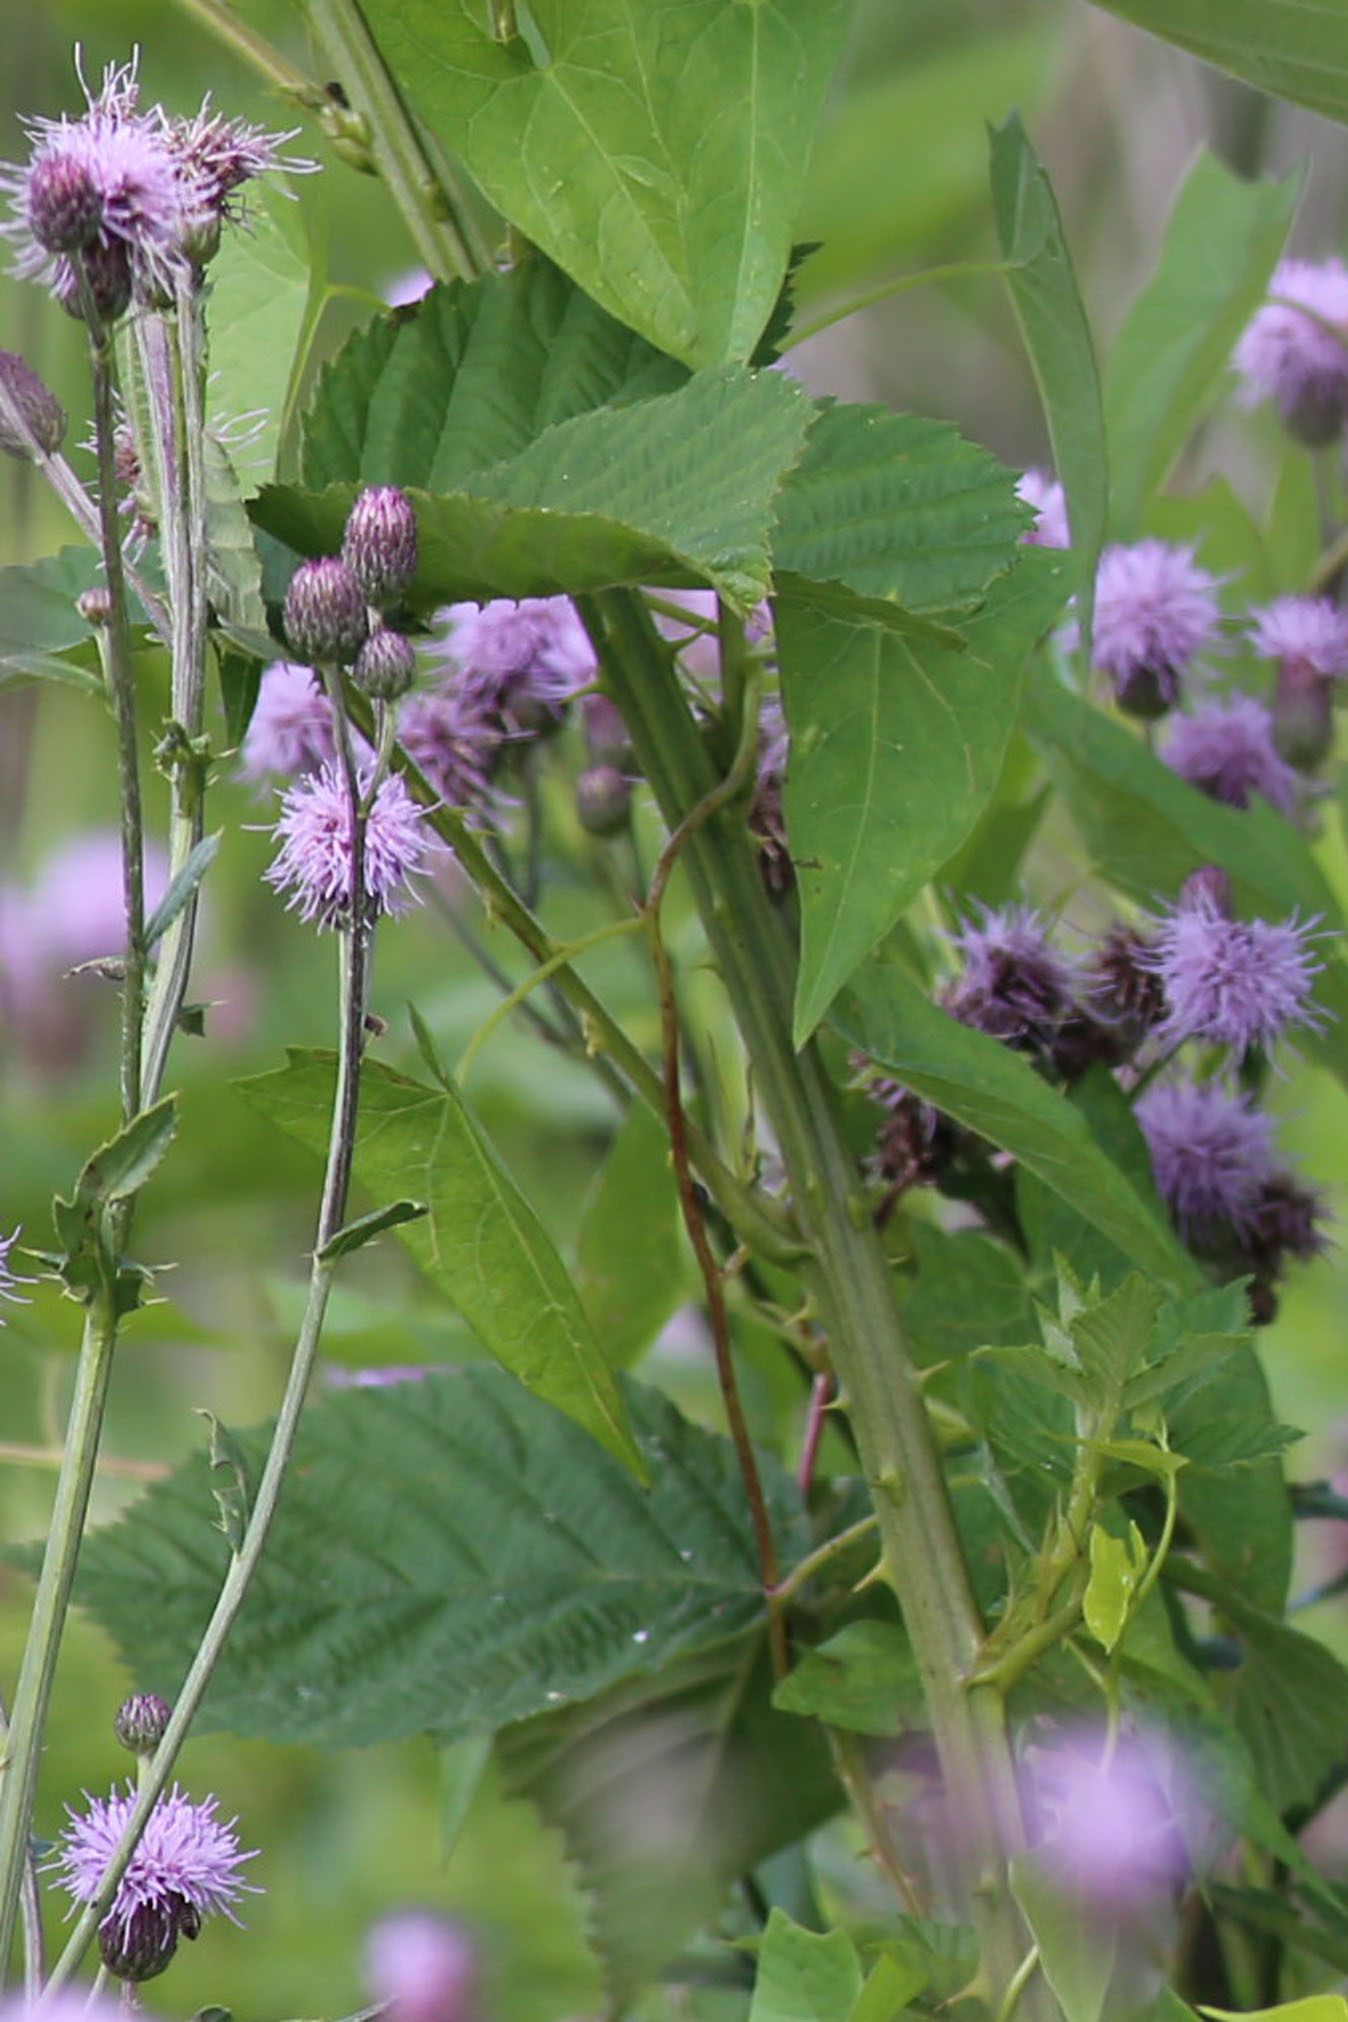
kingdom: Plantae
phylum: Tracheophyta
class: Magnoliopsida
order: Asterales
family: Asteraceae
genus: Cirsium
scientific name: Cirsium arvense
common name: Creeping thistle
